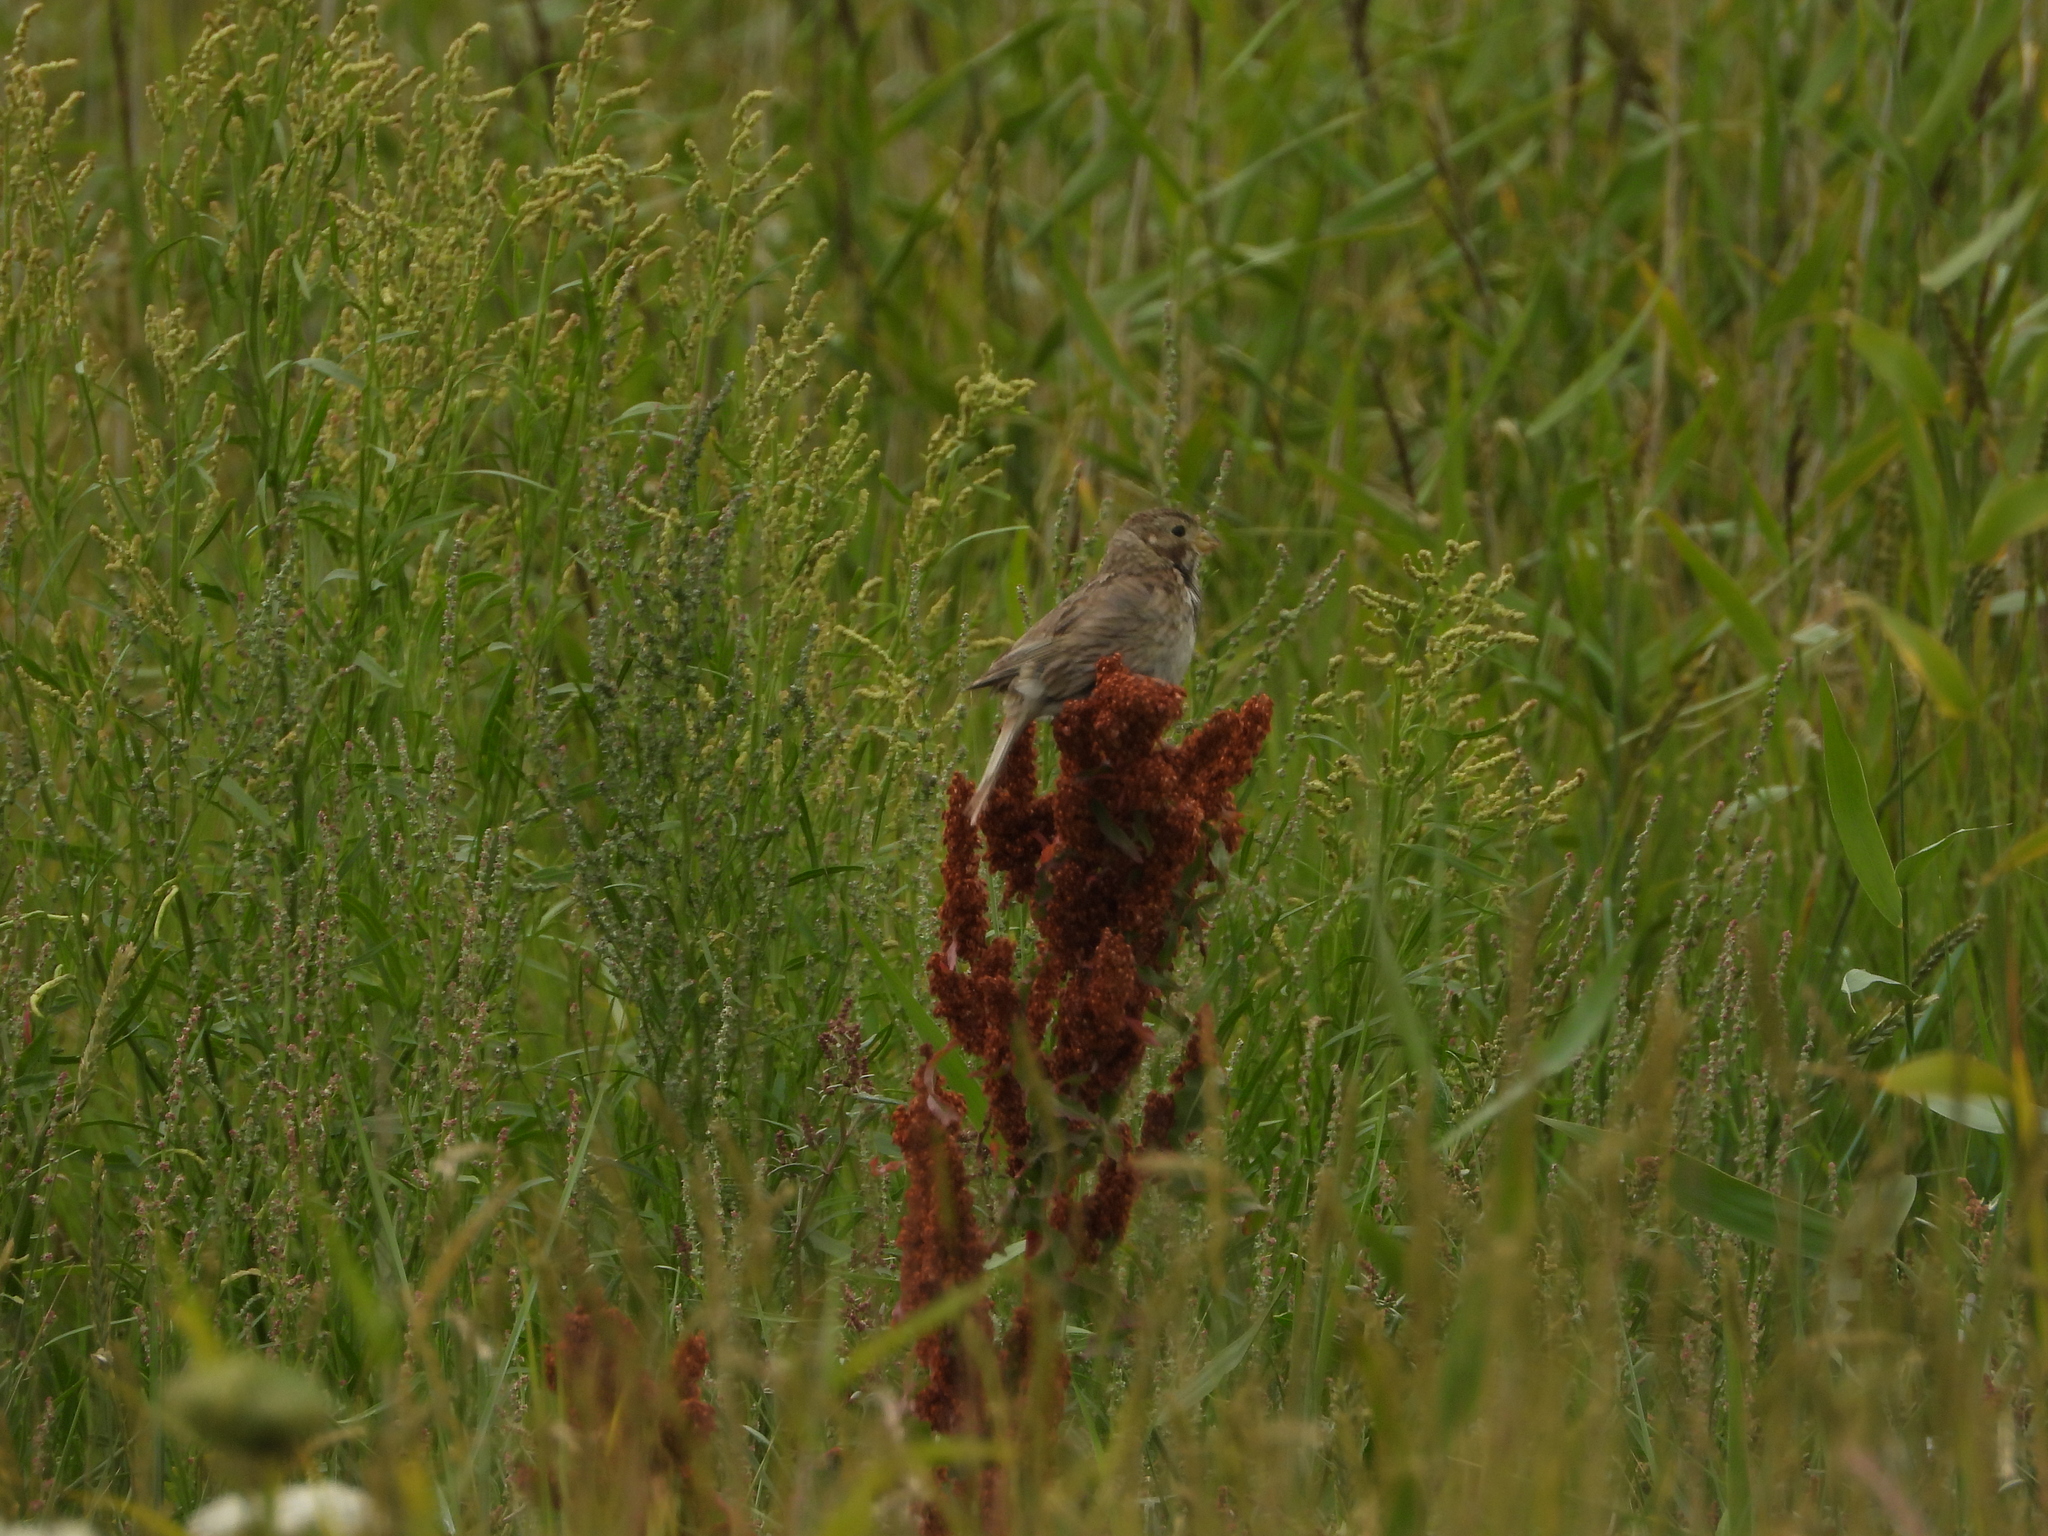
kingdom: Animalia
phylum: Chordata
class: Aves
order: Passeriformes
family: Emberizidae
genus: Emberiza
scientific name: Emberiza calandra
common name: Corn bunting
